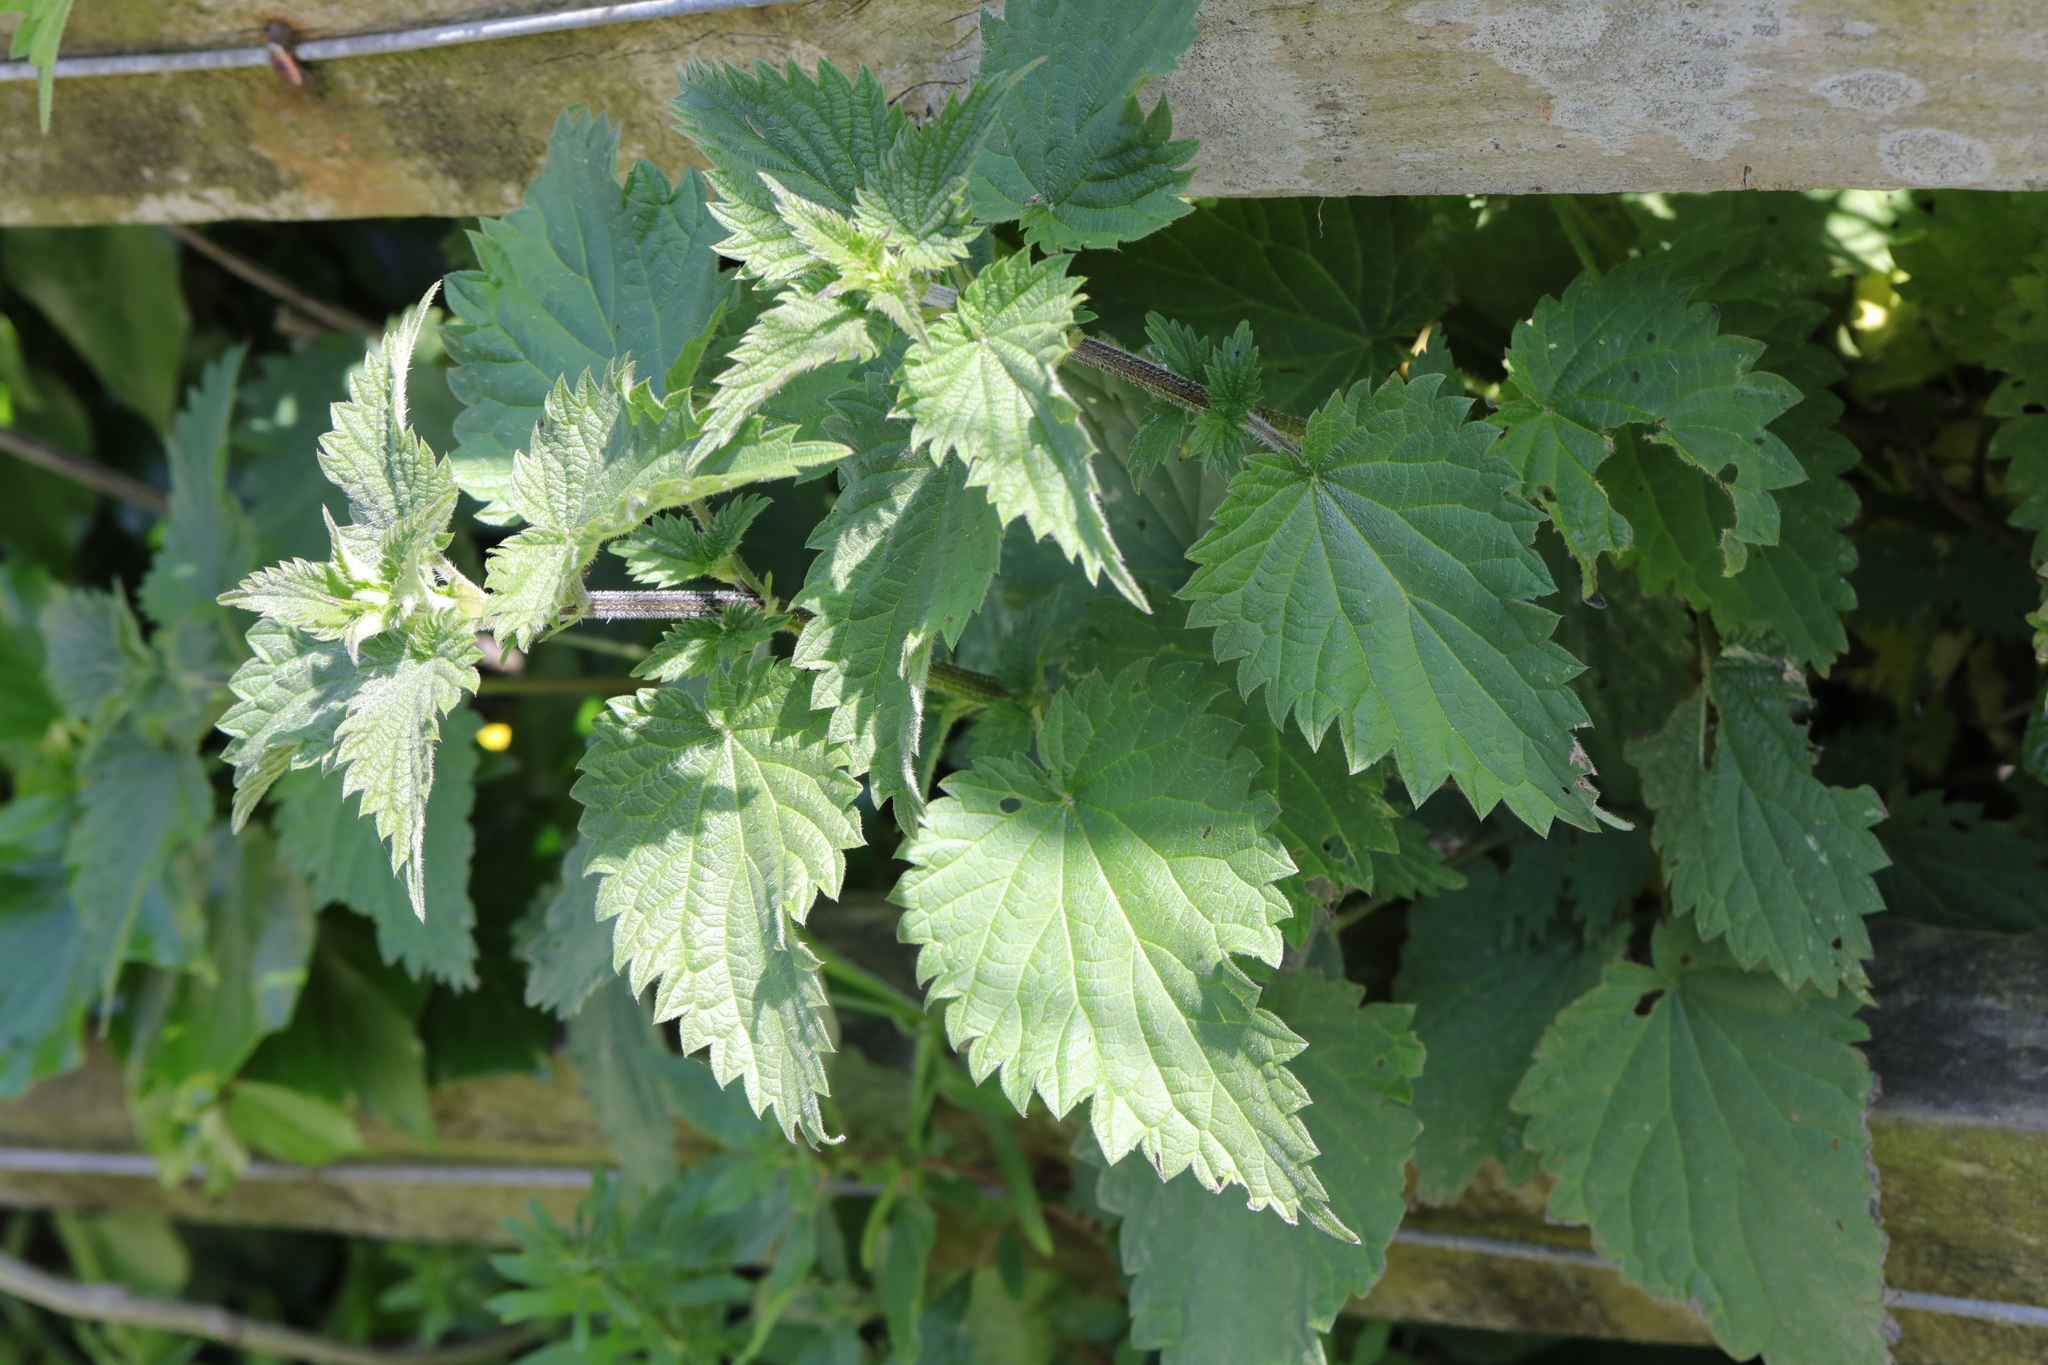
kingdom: Plantae
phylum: Tracheophyta
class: Magnoliopsida
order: Rosales
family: Urticaceae
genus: Urtica
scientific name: Urtica dioica
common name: Common nettle
